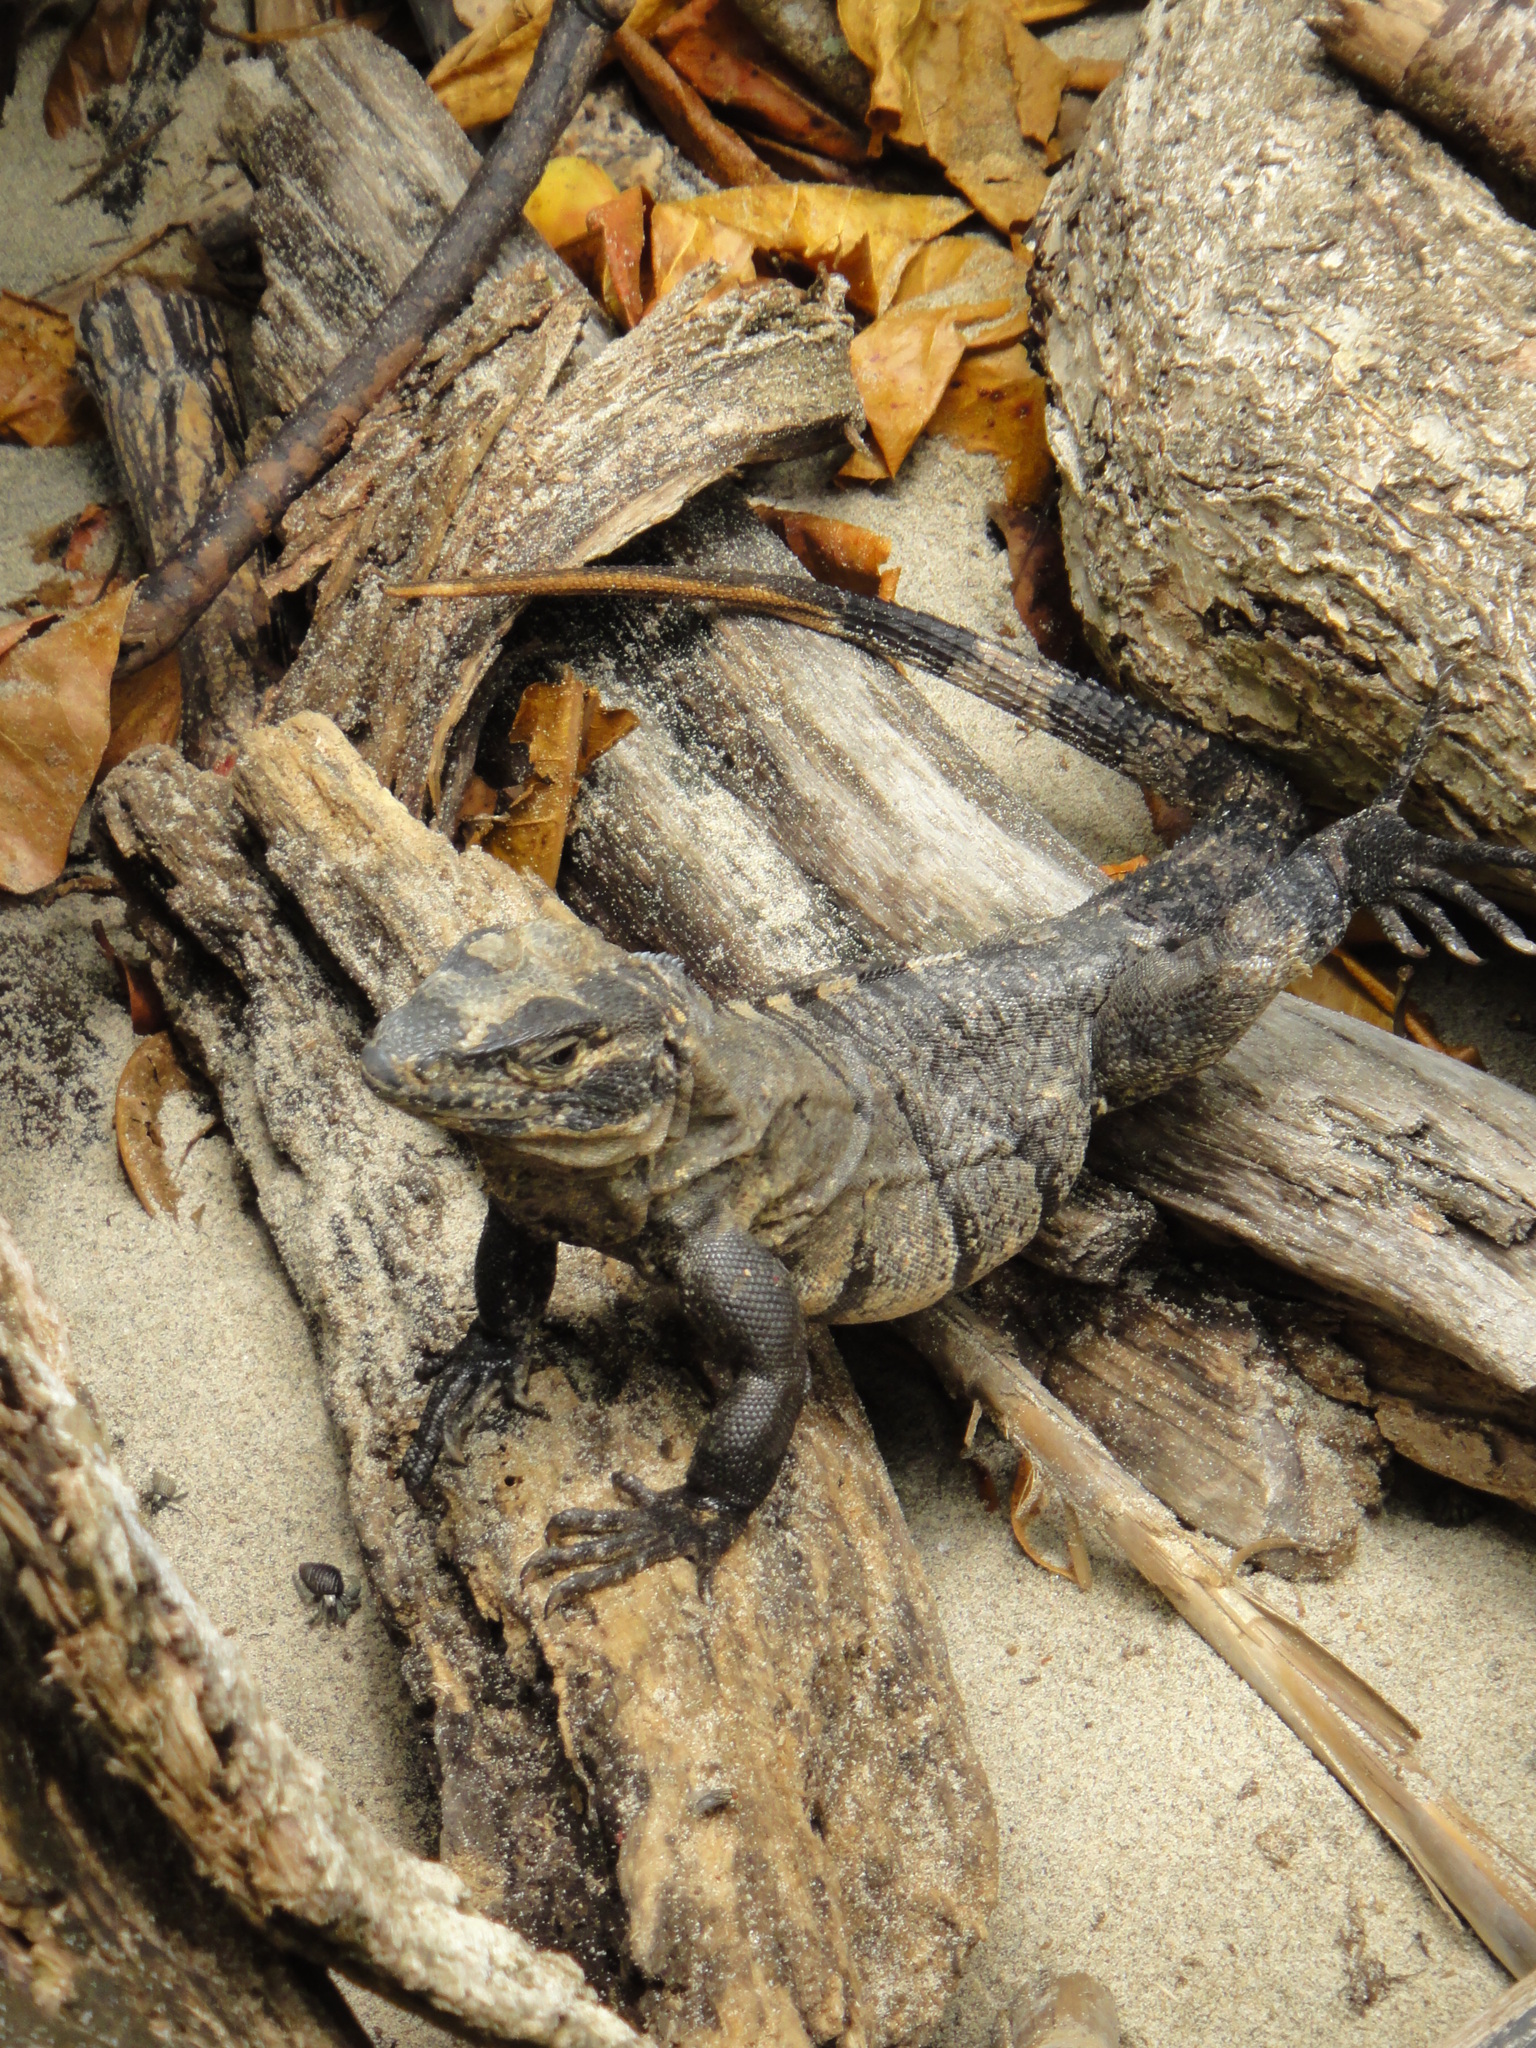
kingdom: Animalia
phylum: Chordata
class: Squamata
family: Iguanidae
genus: Ctenosaura
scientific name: Ctenosaura similis
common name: Black spiny-tailed iguana
